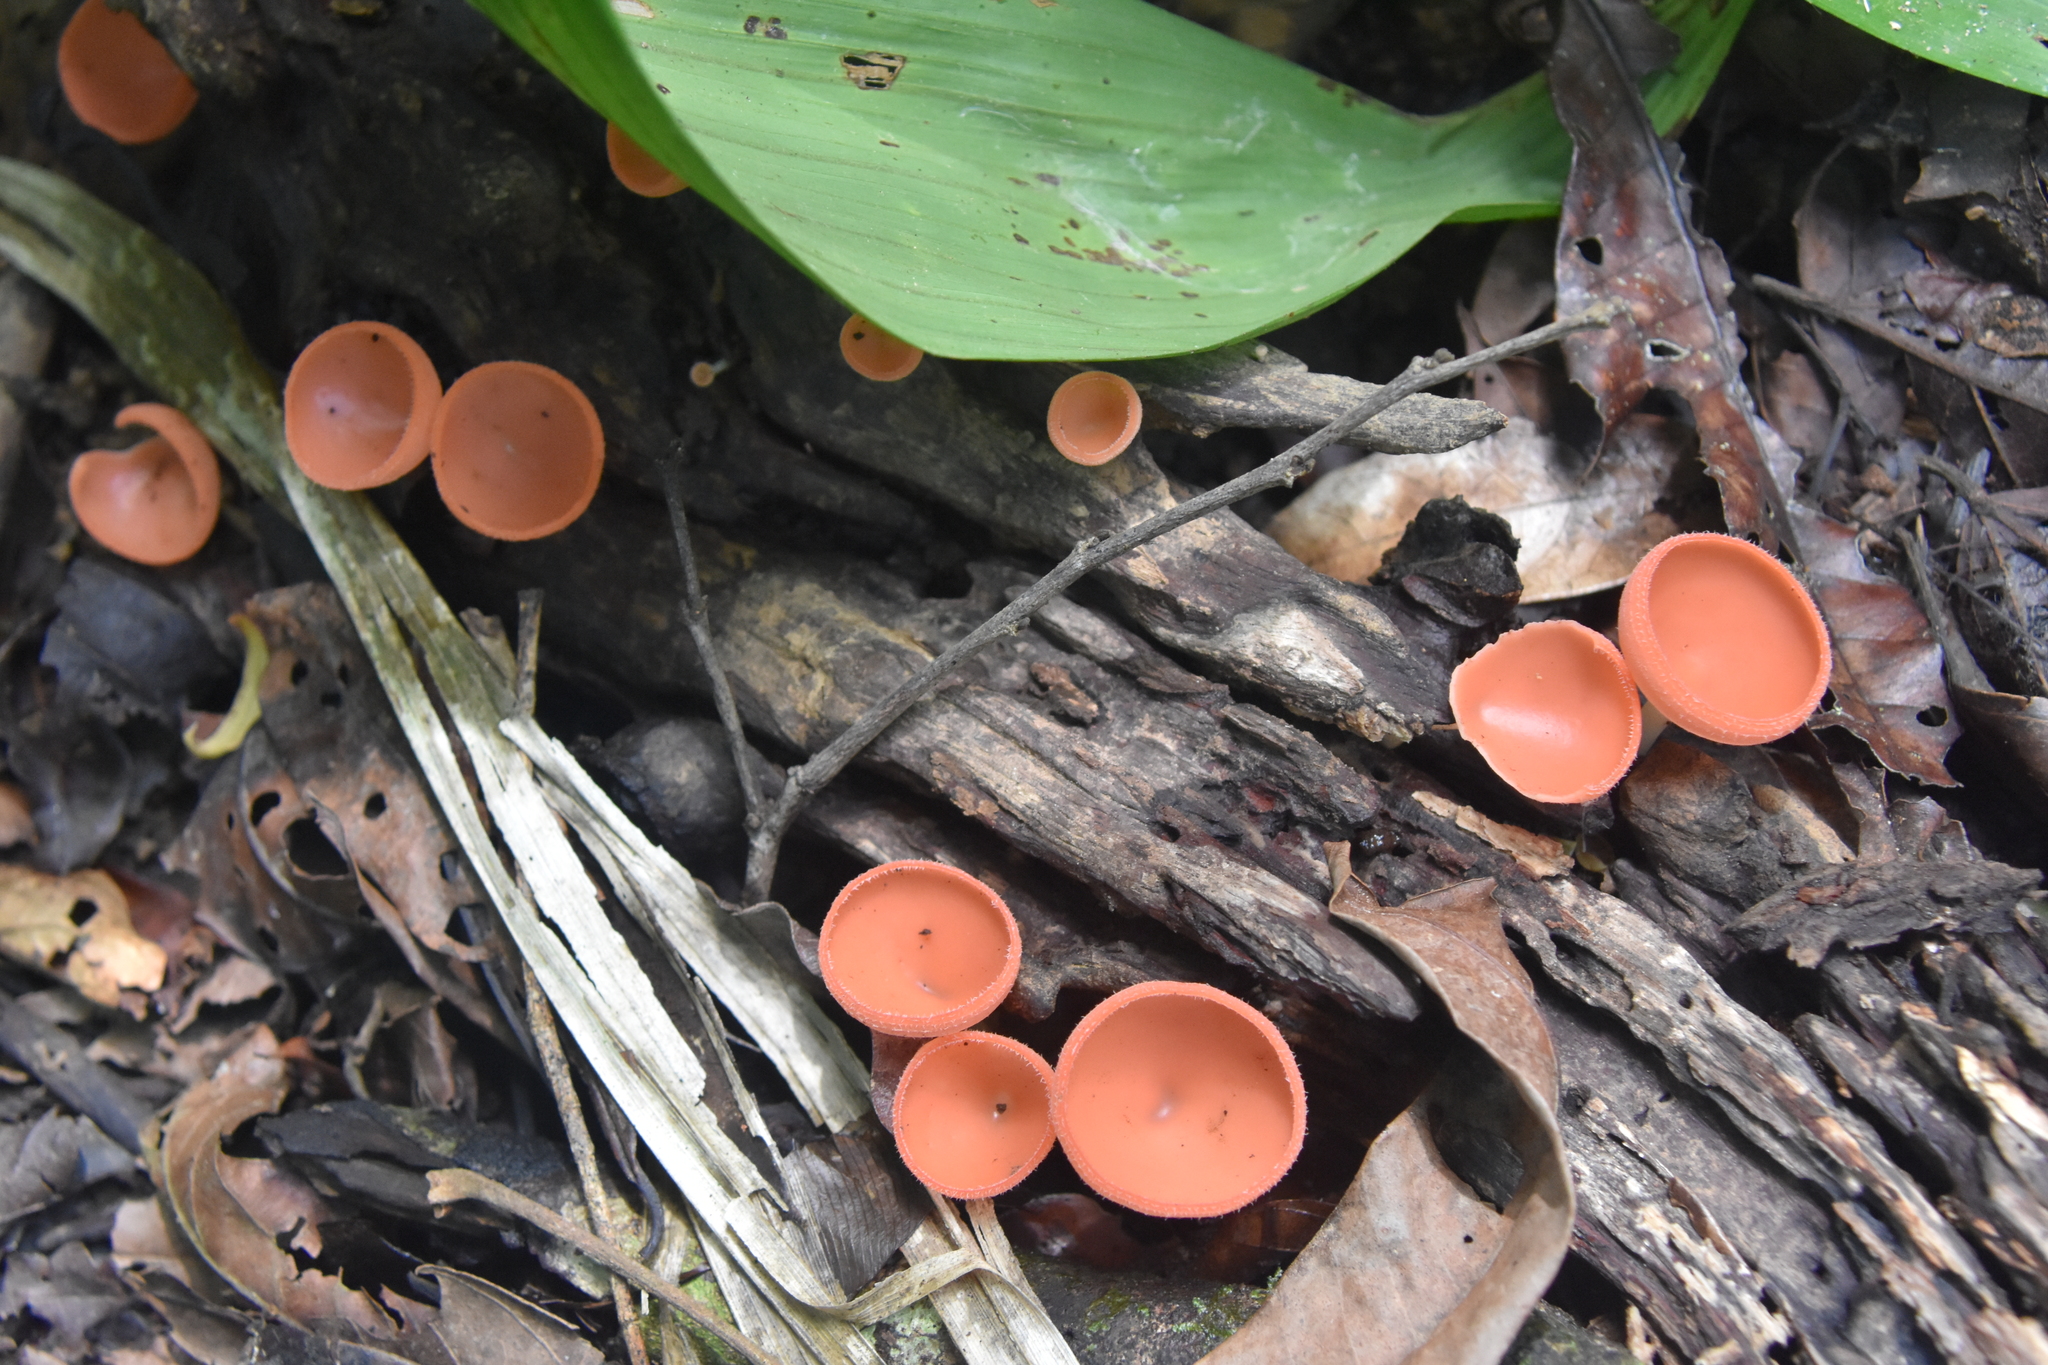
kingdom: Fungi
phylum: Ascomycota
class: Pezizomycetes
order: Pezizales
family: Sarcoscyphaceae
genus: Cookeina
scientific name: Cookeina speciosa
